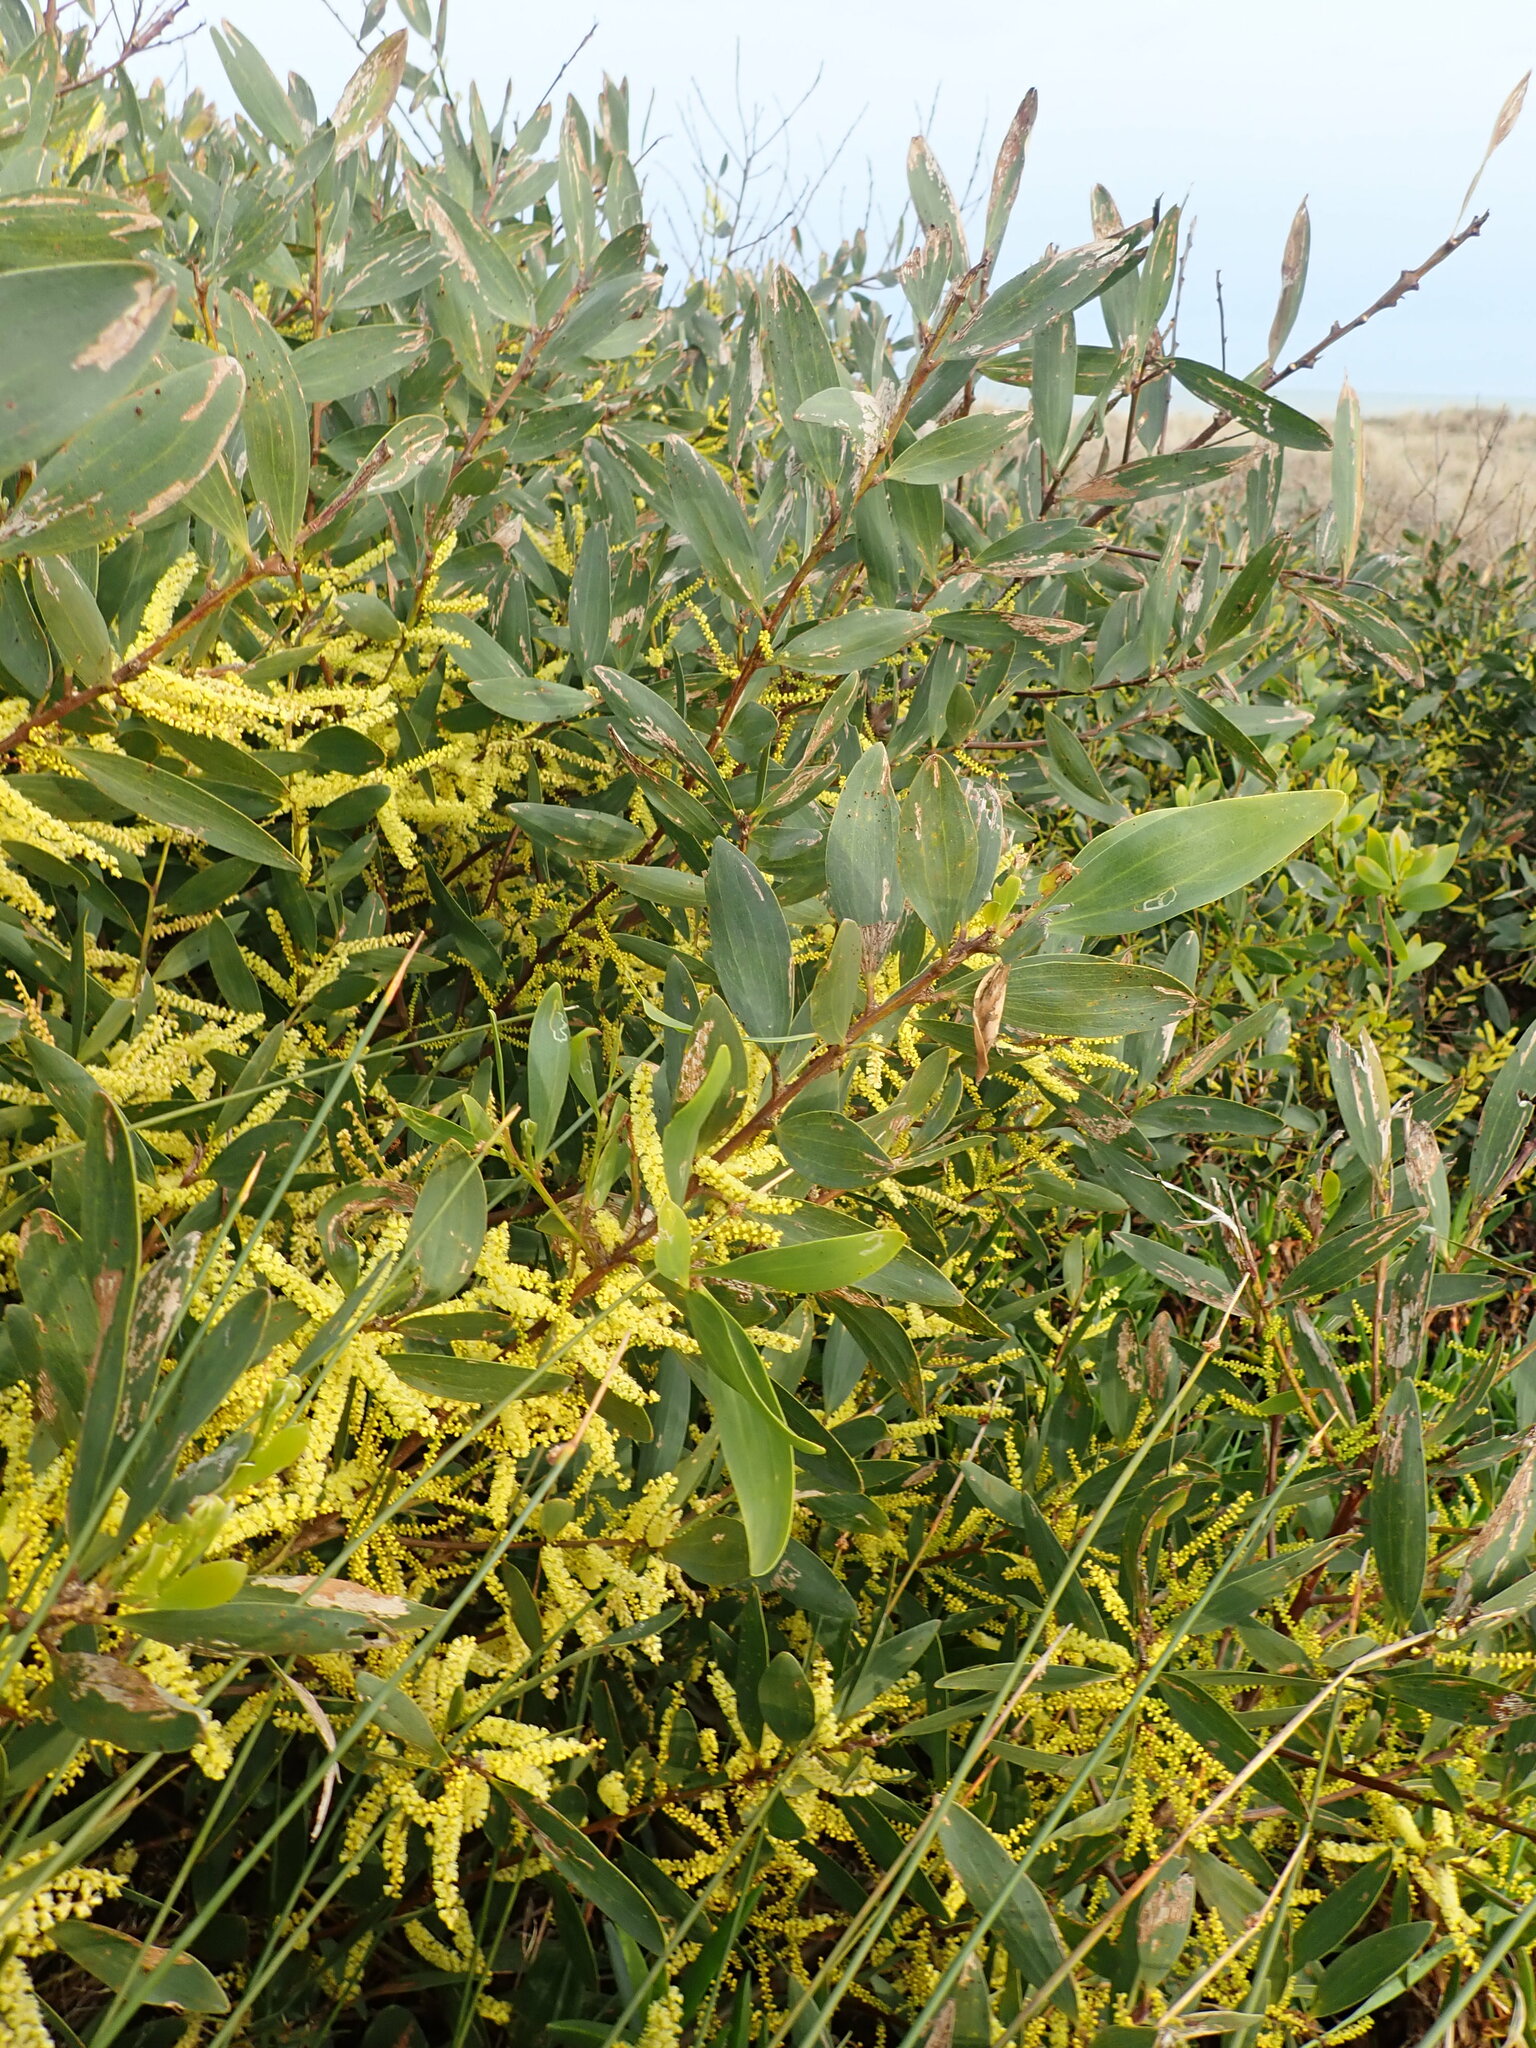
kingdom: Plantae
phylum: Tracheophyta
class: Magnoliopsida
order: Fabales
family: Fabaceae
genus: Acacia
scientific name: Acacia longifolia
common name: Sydney golden wattle
